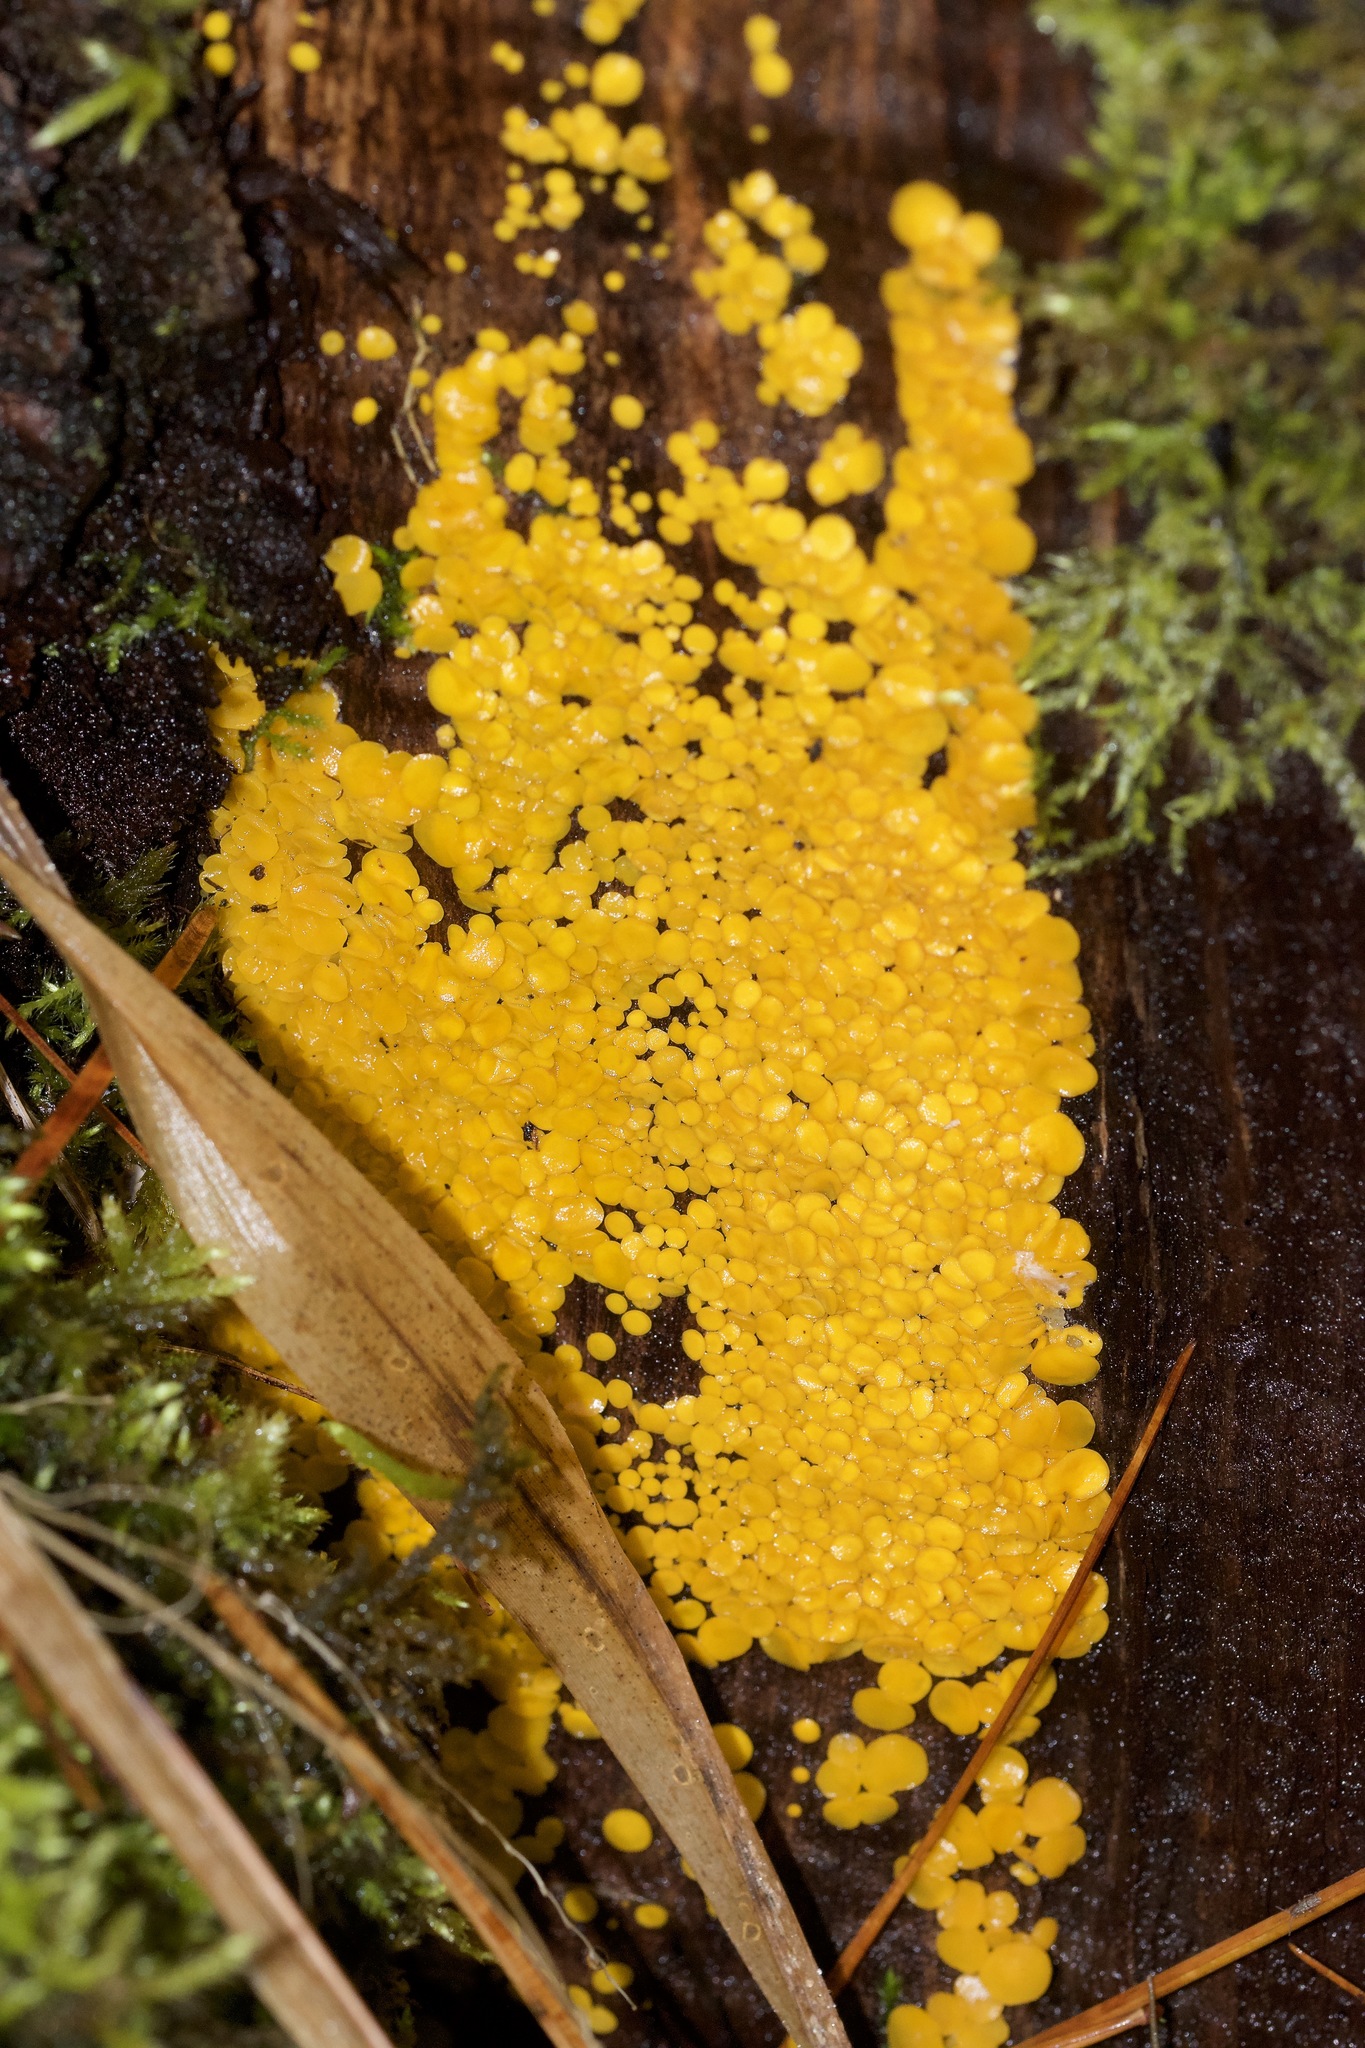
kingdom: Fungi
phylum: Ascomycota
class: Leotiomycetes
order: Helotiales
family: Pezizellaceae
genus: Calycina
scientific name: Calycina citrina
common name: Yellow fairy cups
